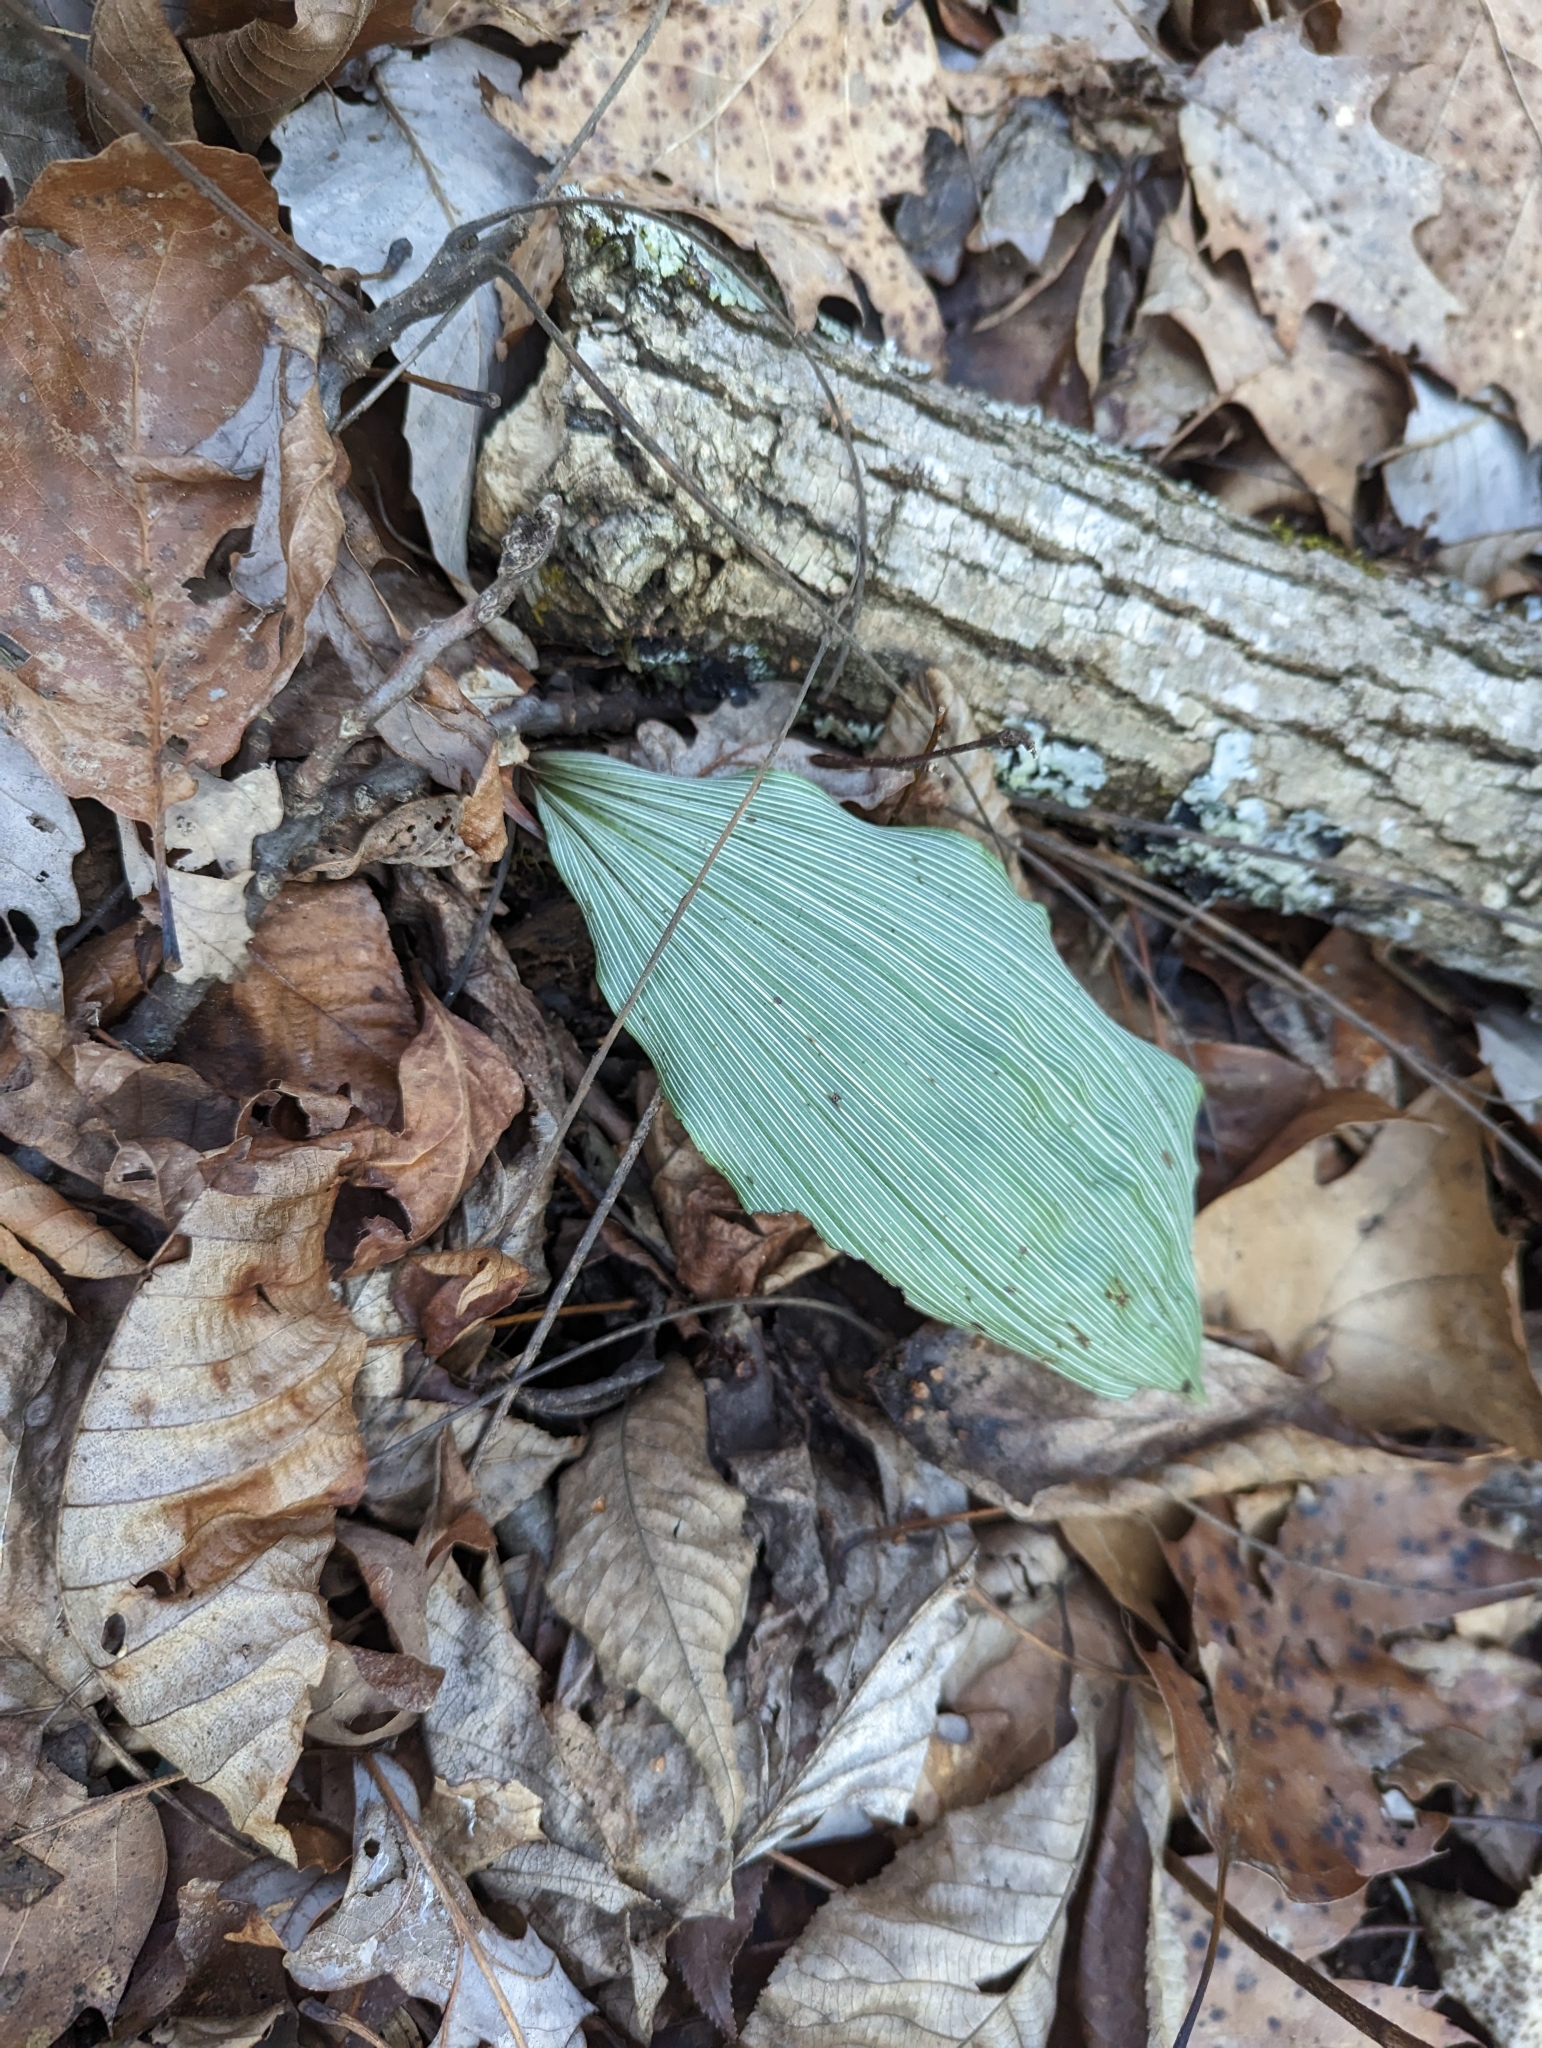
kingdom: Plantae
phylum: Tracheophyta
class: Liliopsida
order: Asparagales
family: Orchidaceae
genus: Aplectrum
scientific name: Aplectrum hyemale
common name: Adam-and-eve
